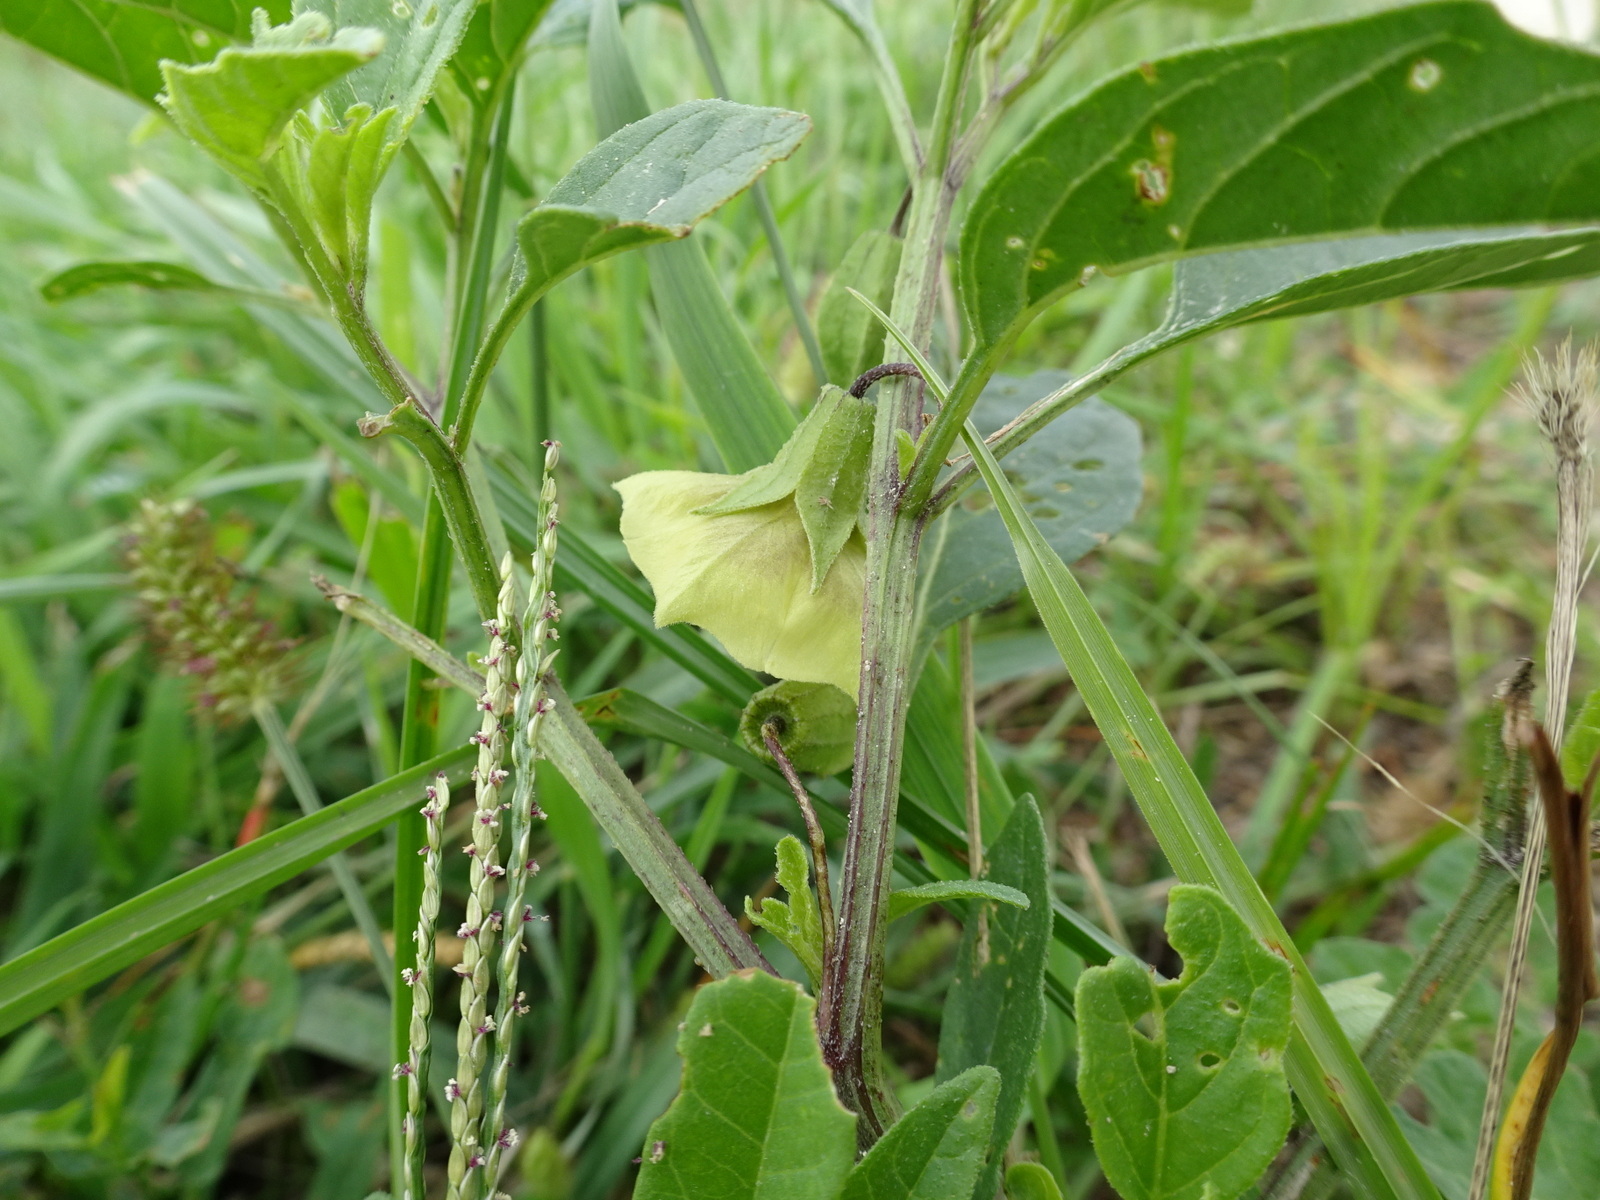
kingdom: Plantae
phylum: Tracheophyta
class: Magnoliopsida
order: Solanales
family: Solanaceae
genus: Physalis
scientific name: Physalis longifolia
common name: Common ground-cherry
